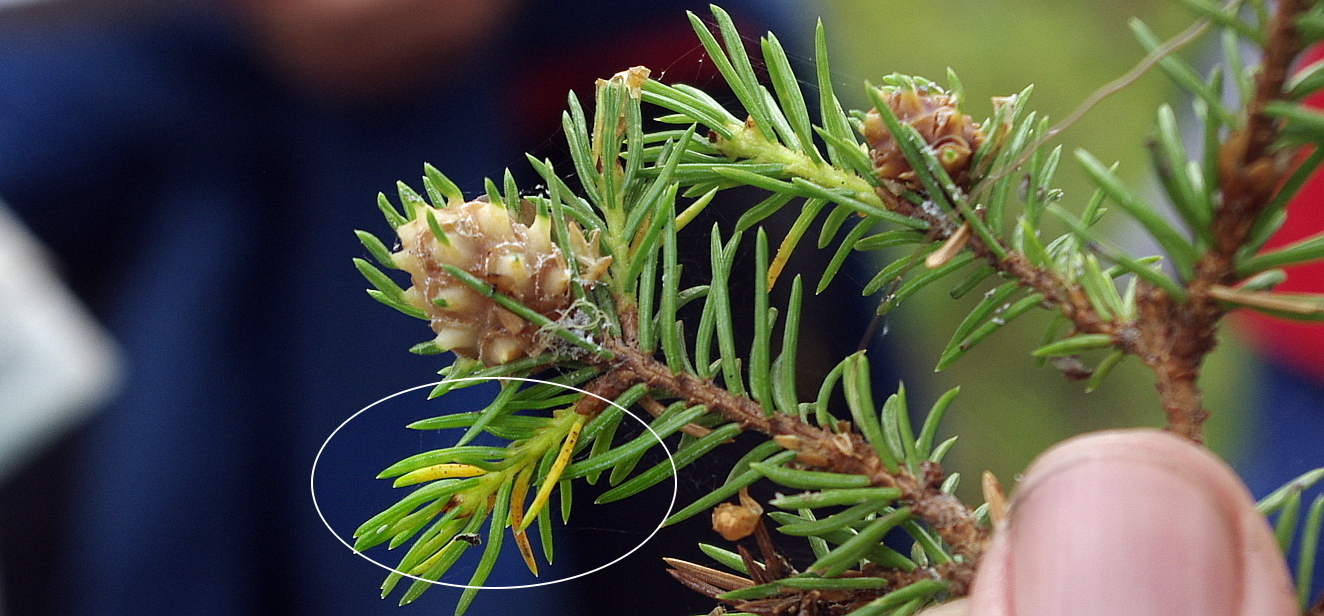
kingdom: Fungi
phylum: Basidiomycota
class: Pucciniomycetes
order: Pucciniales
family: Coleosporiaceae
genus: Chrysomyxa
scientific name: Chrysomyxa
